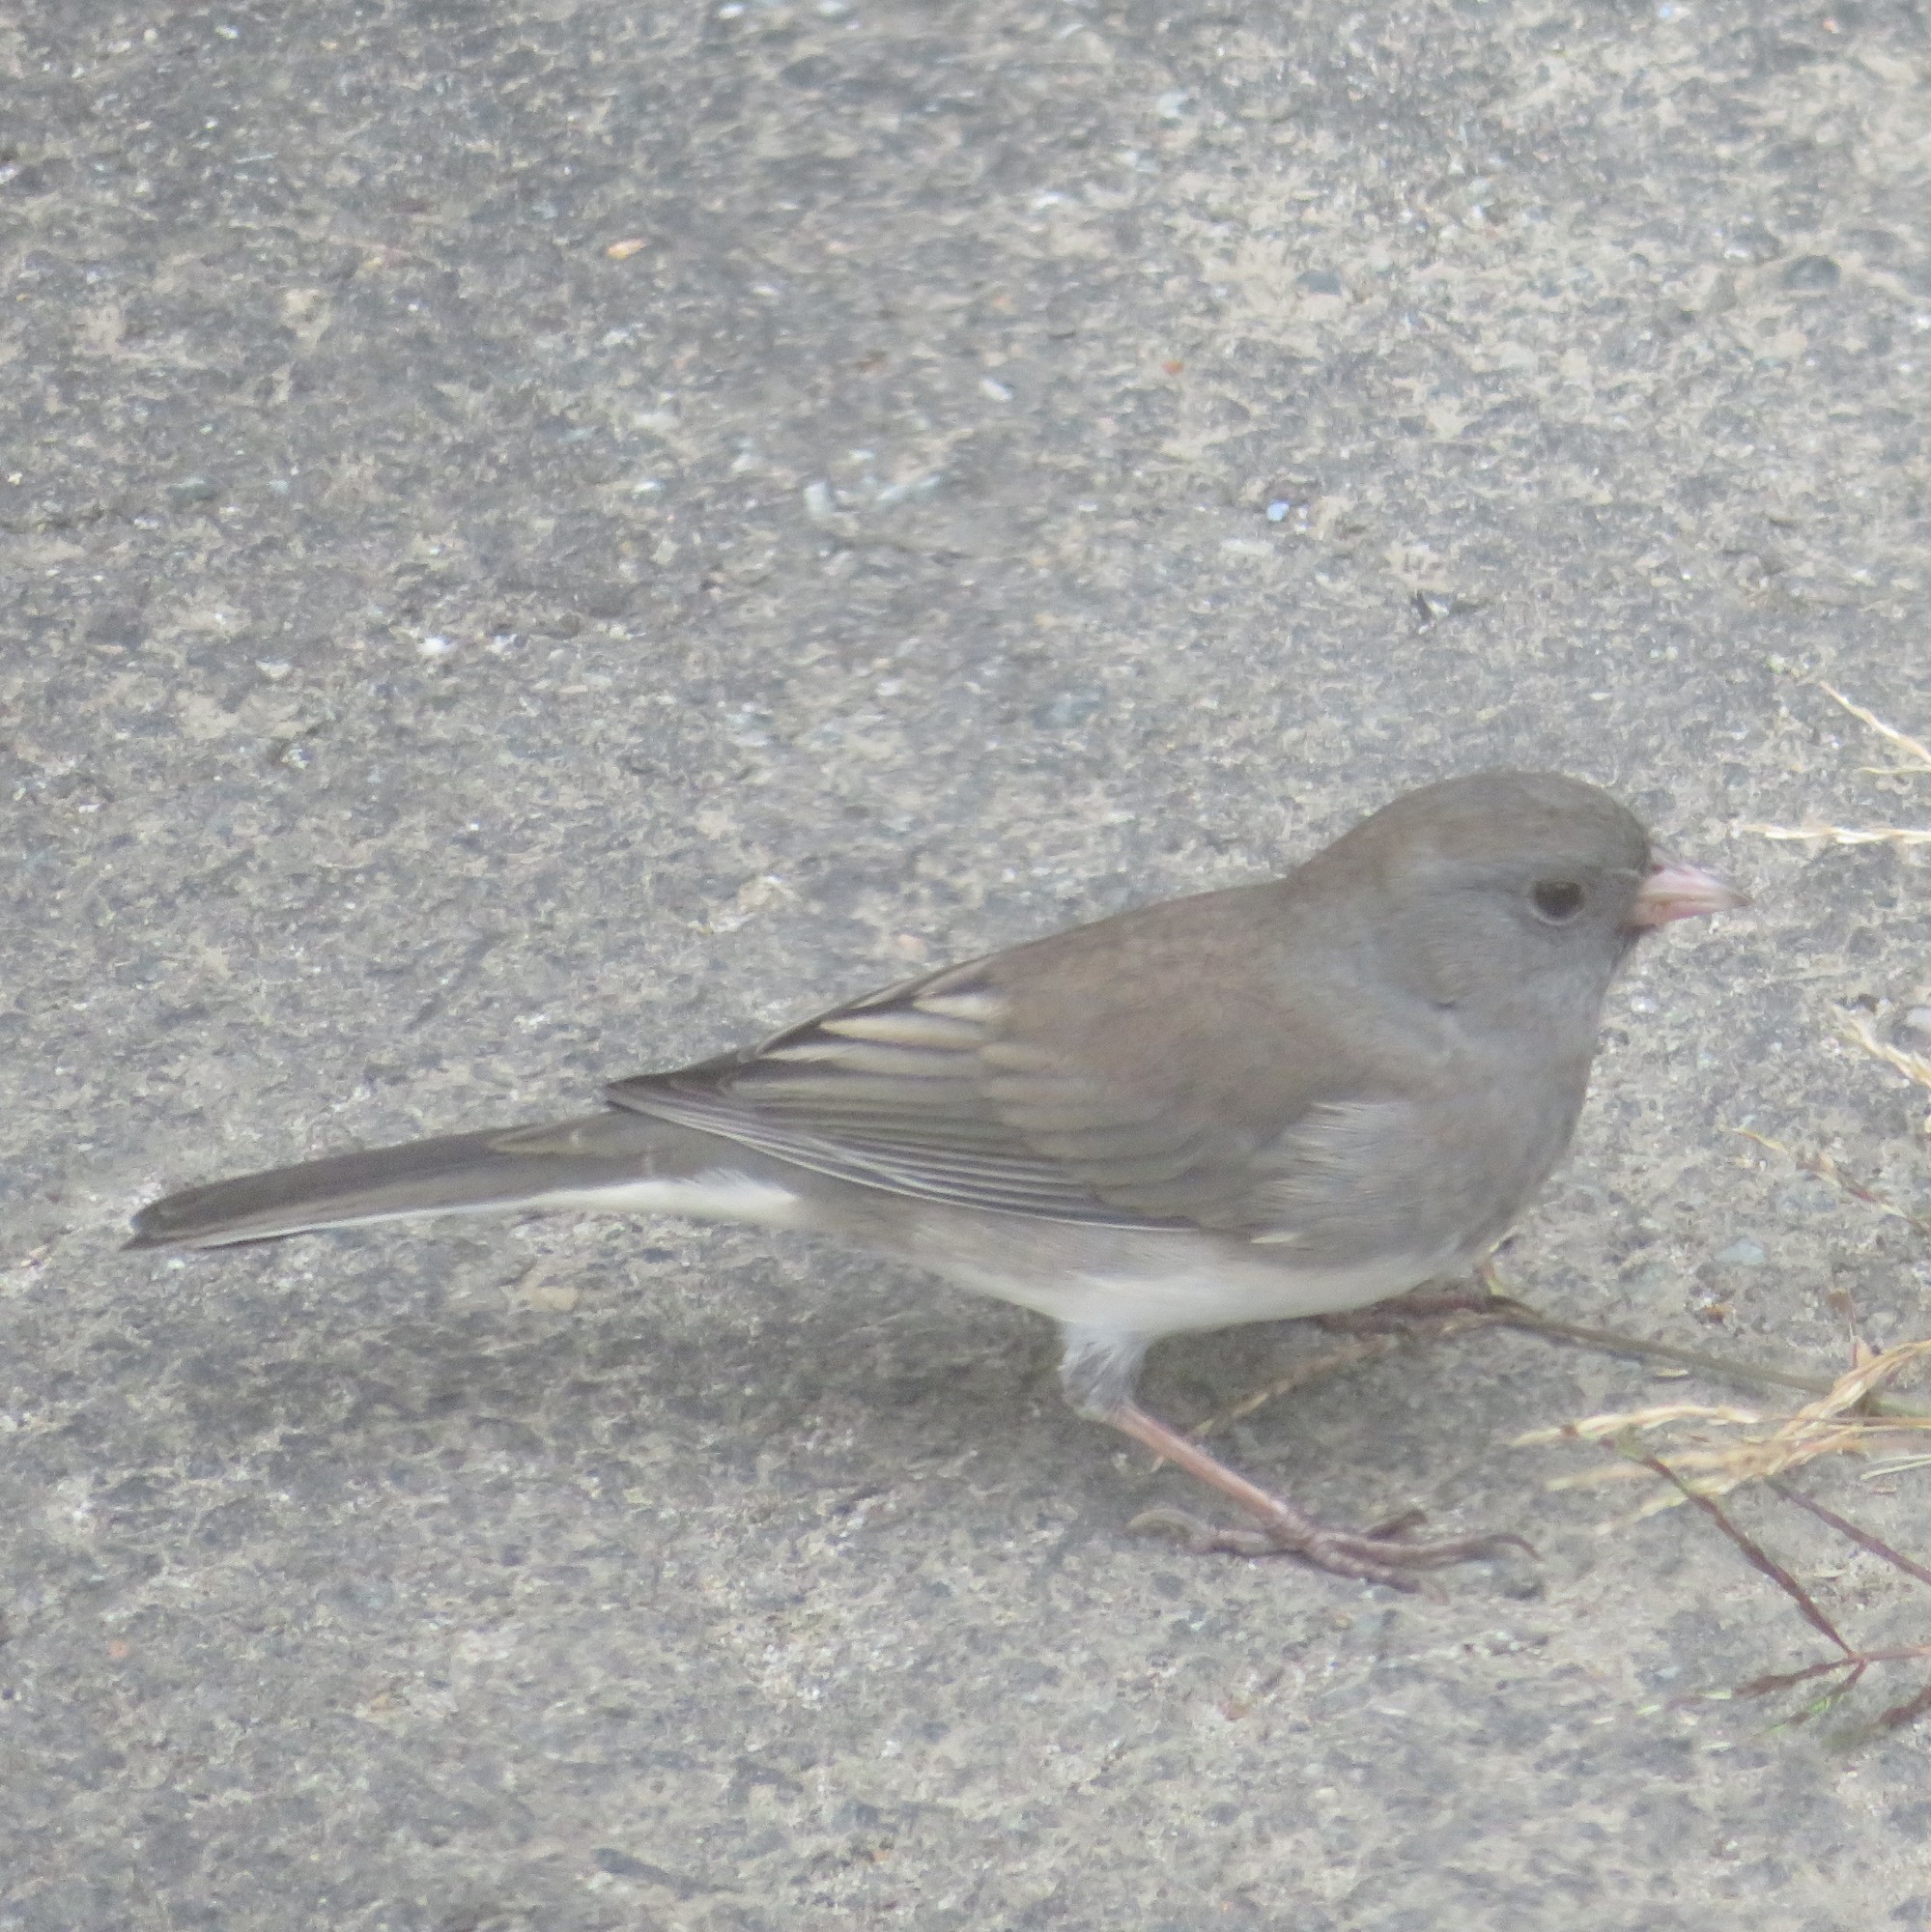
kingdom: Animalia
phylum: Chordata
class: Aves
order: Passeriformes
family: Passerellidae
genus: Junco
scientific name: Junco hyemalis
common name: Dark-eyed junco
